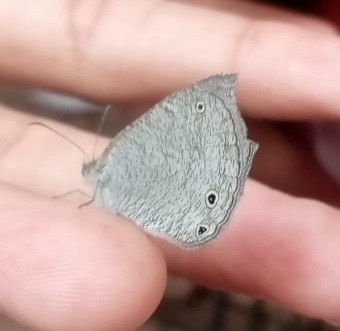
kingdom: Animalia
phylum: Arthropoda
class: Insecta
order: Lepidoptera
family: Nymphalidae
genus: Ypthima
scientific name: Ypthima asterope
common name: African ringlet
